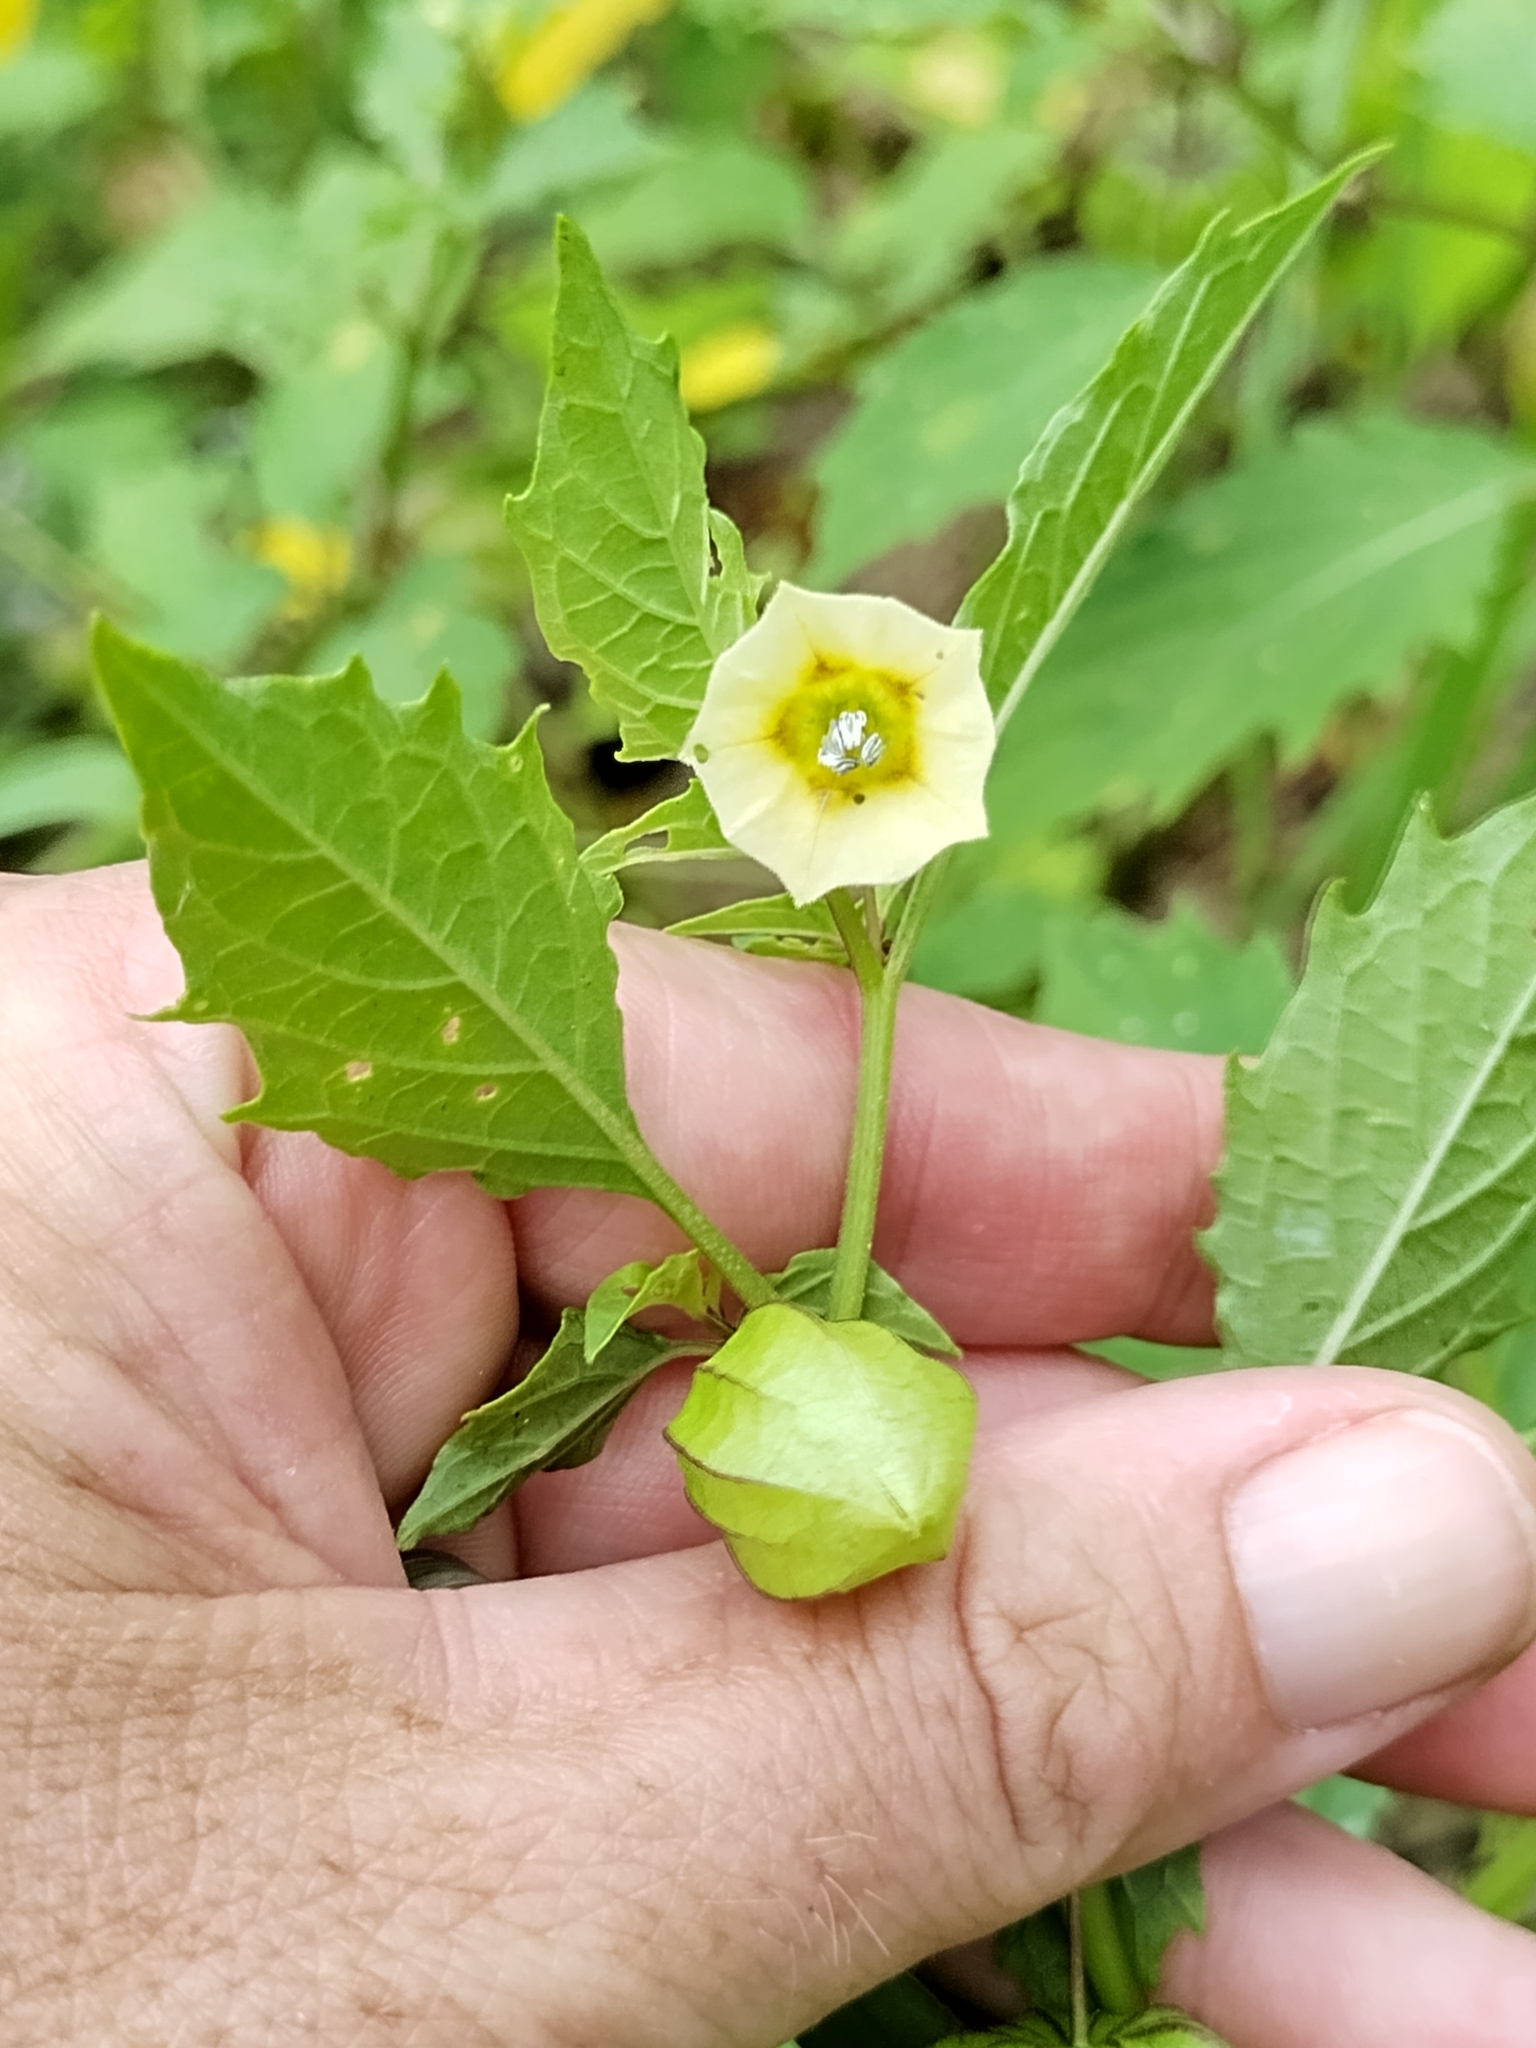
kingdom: Plantae
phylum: Tracheophyta
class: Magnoliopsida
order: Solanales
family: Solanaceae
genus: Physalis
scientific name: Physalis angulata
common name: Angular winter-cherry
